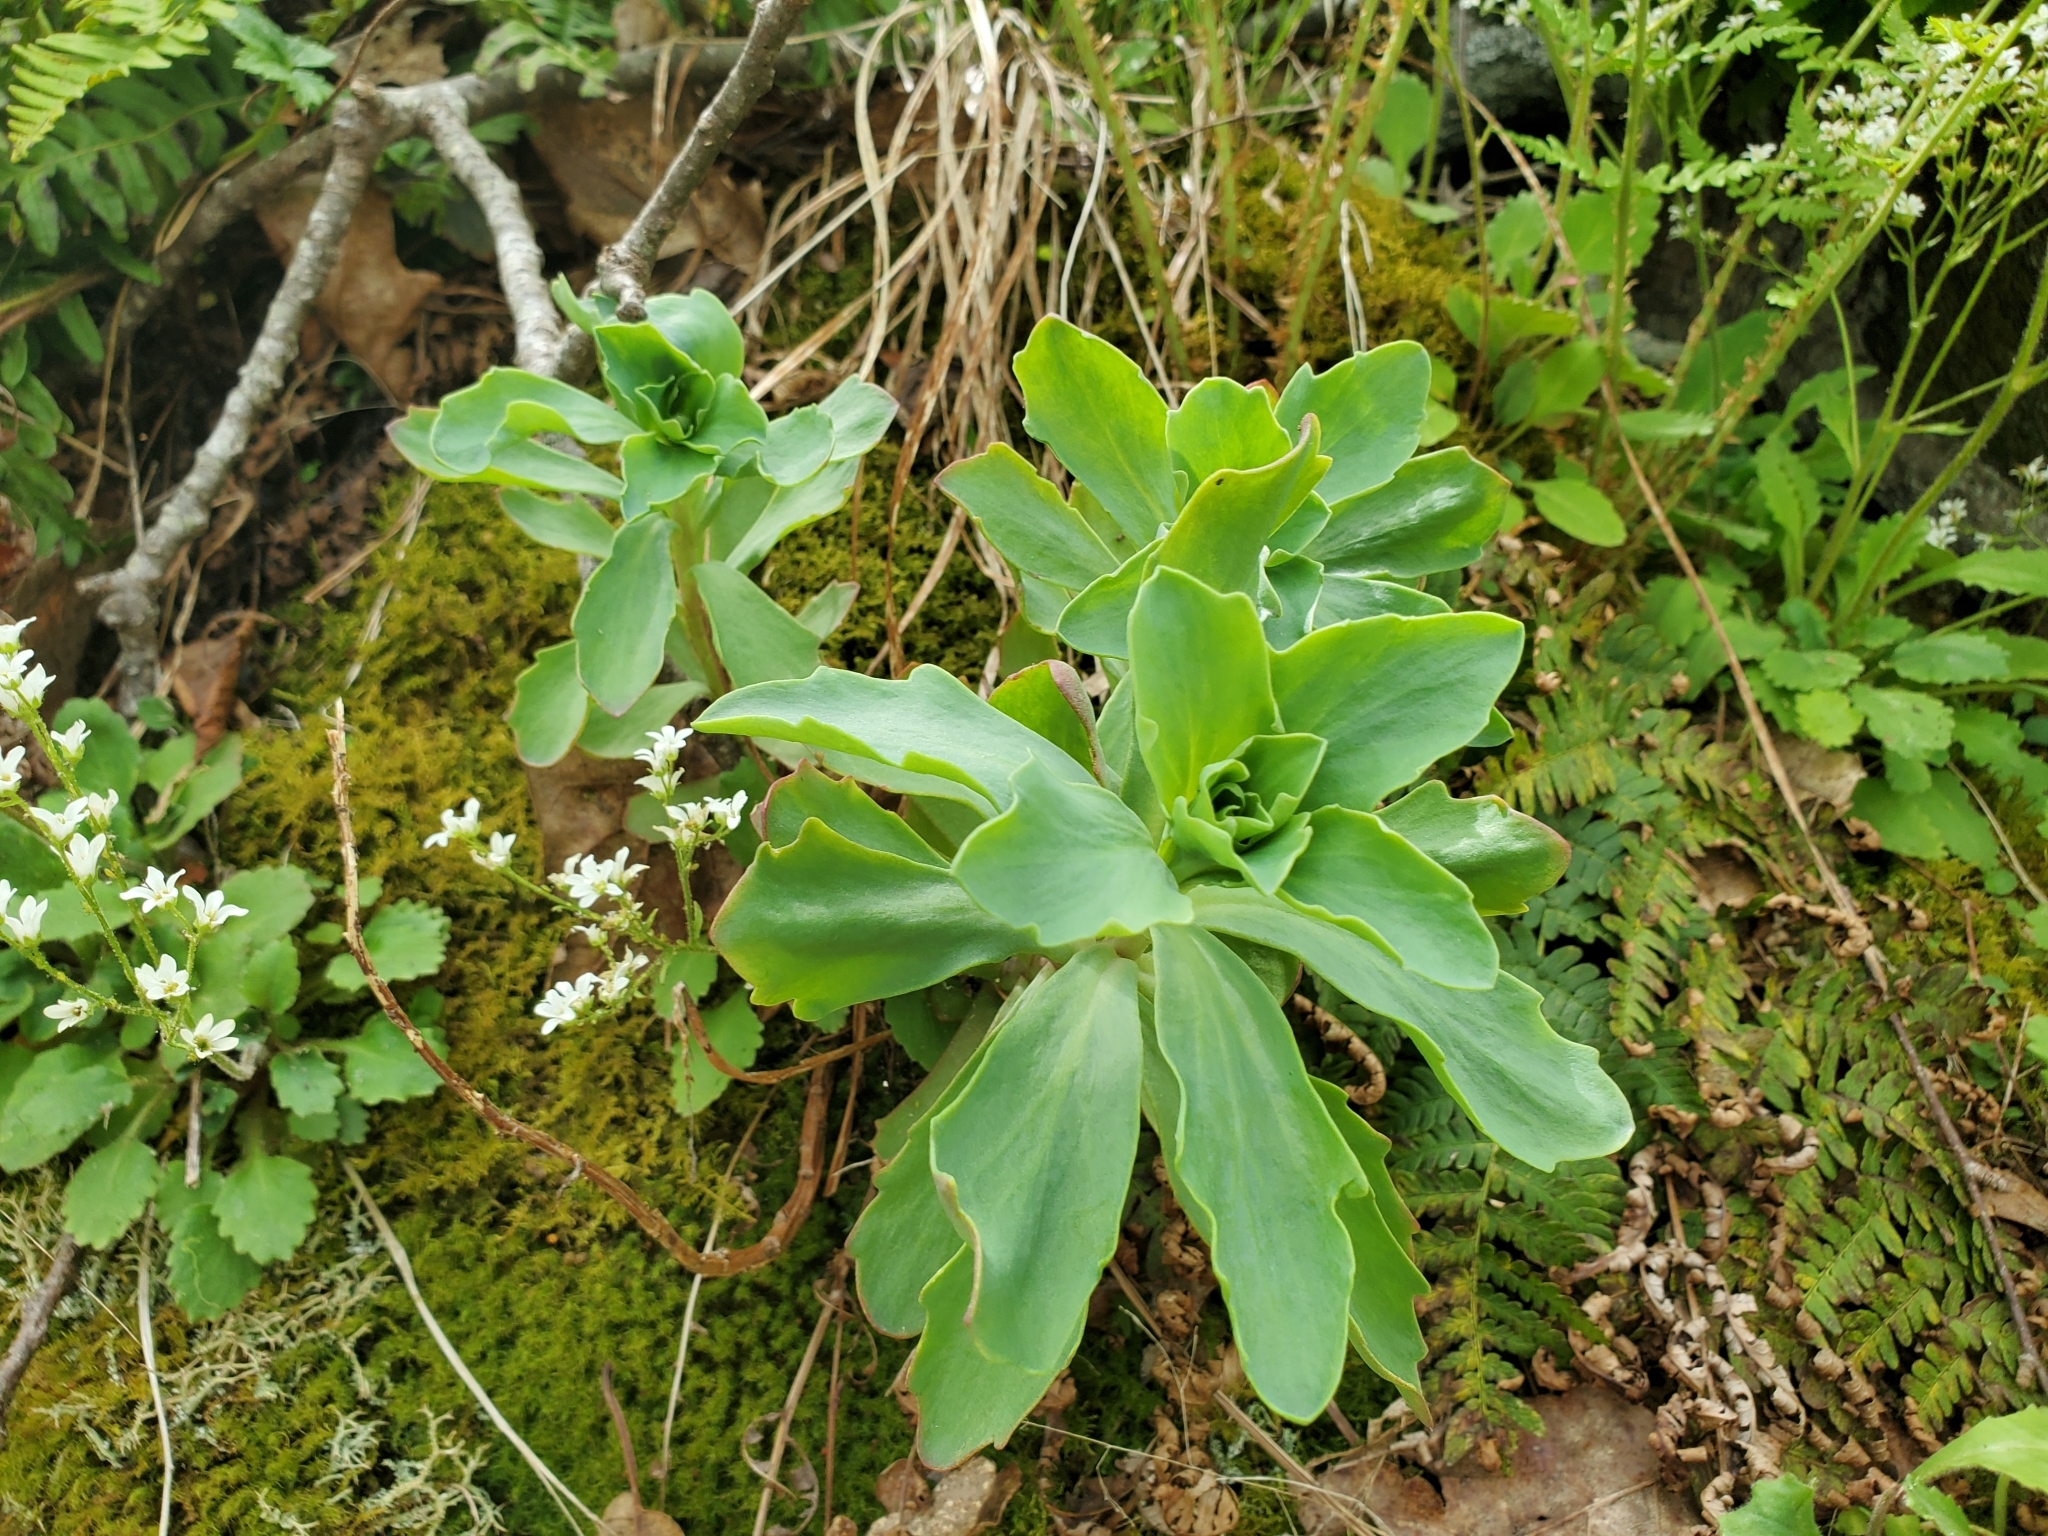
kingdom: Plantae
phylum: Tracheophyta
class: Magnoliopsida
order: Saxifragales
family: Crassulaceae
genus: Hylotelephium
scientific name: Hylotelephium telephioides
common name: Allegheny stonecrop
